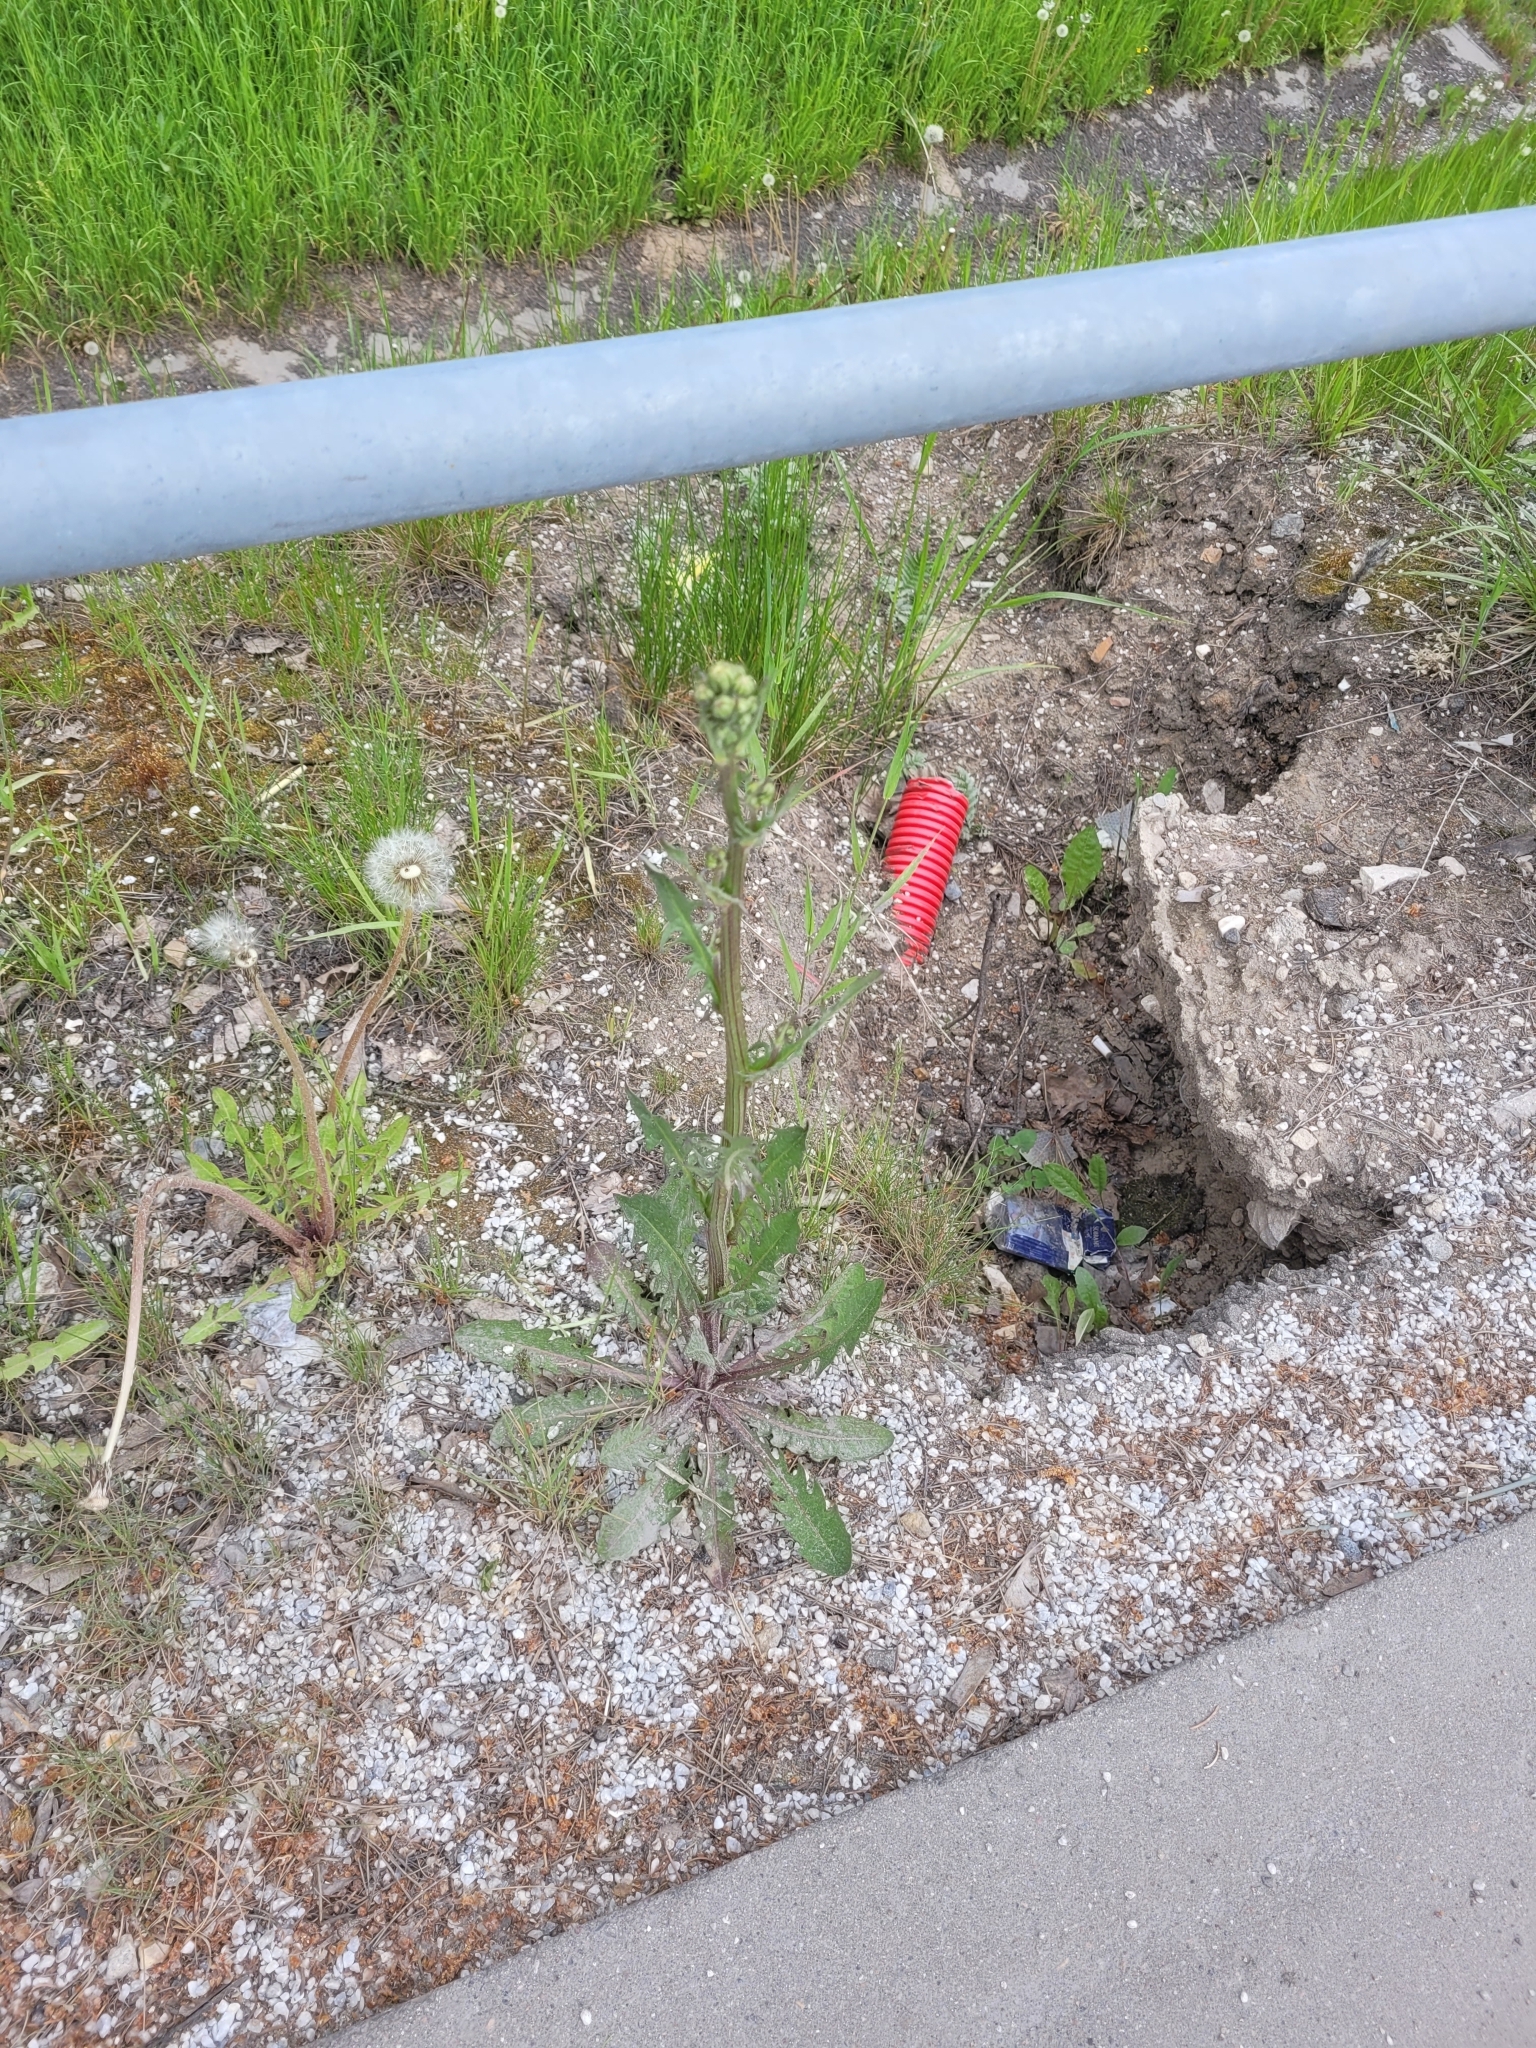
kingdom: Plantae
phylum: Tracheophyta
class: Magnoliopsida
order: Asterales
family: Asteraceae
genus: Crepis
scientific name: Crepis biennis
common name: Rough hawk's-beard
